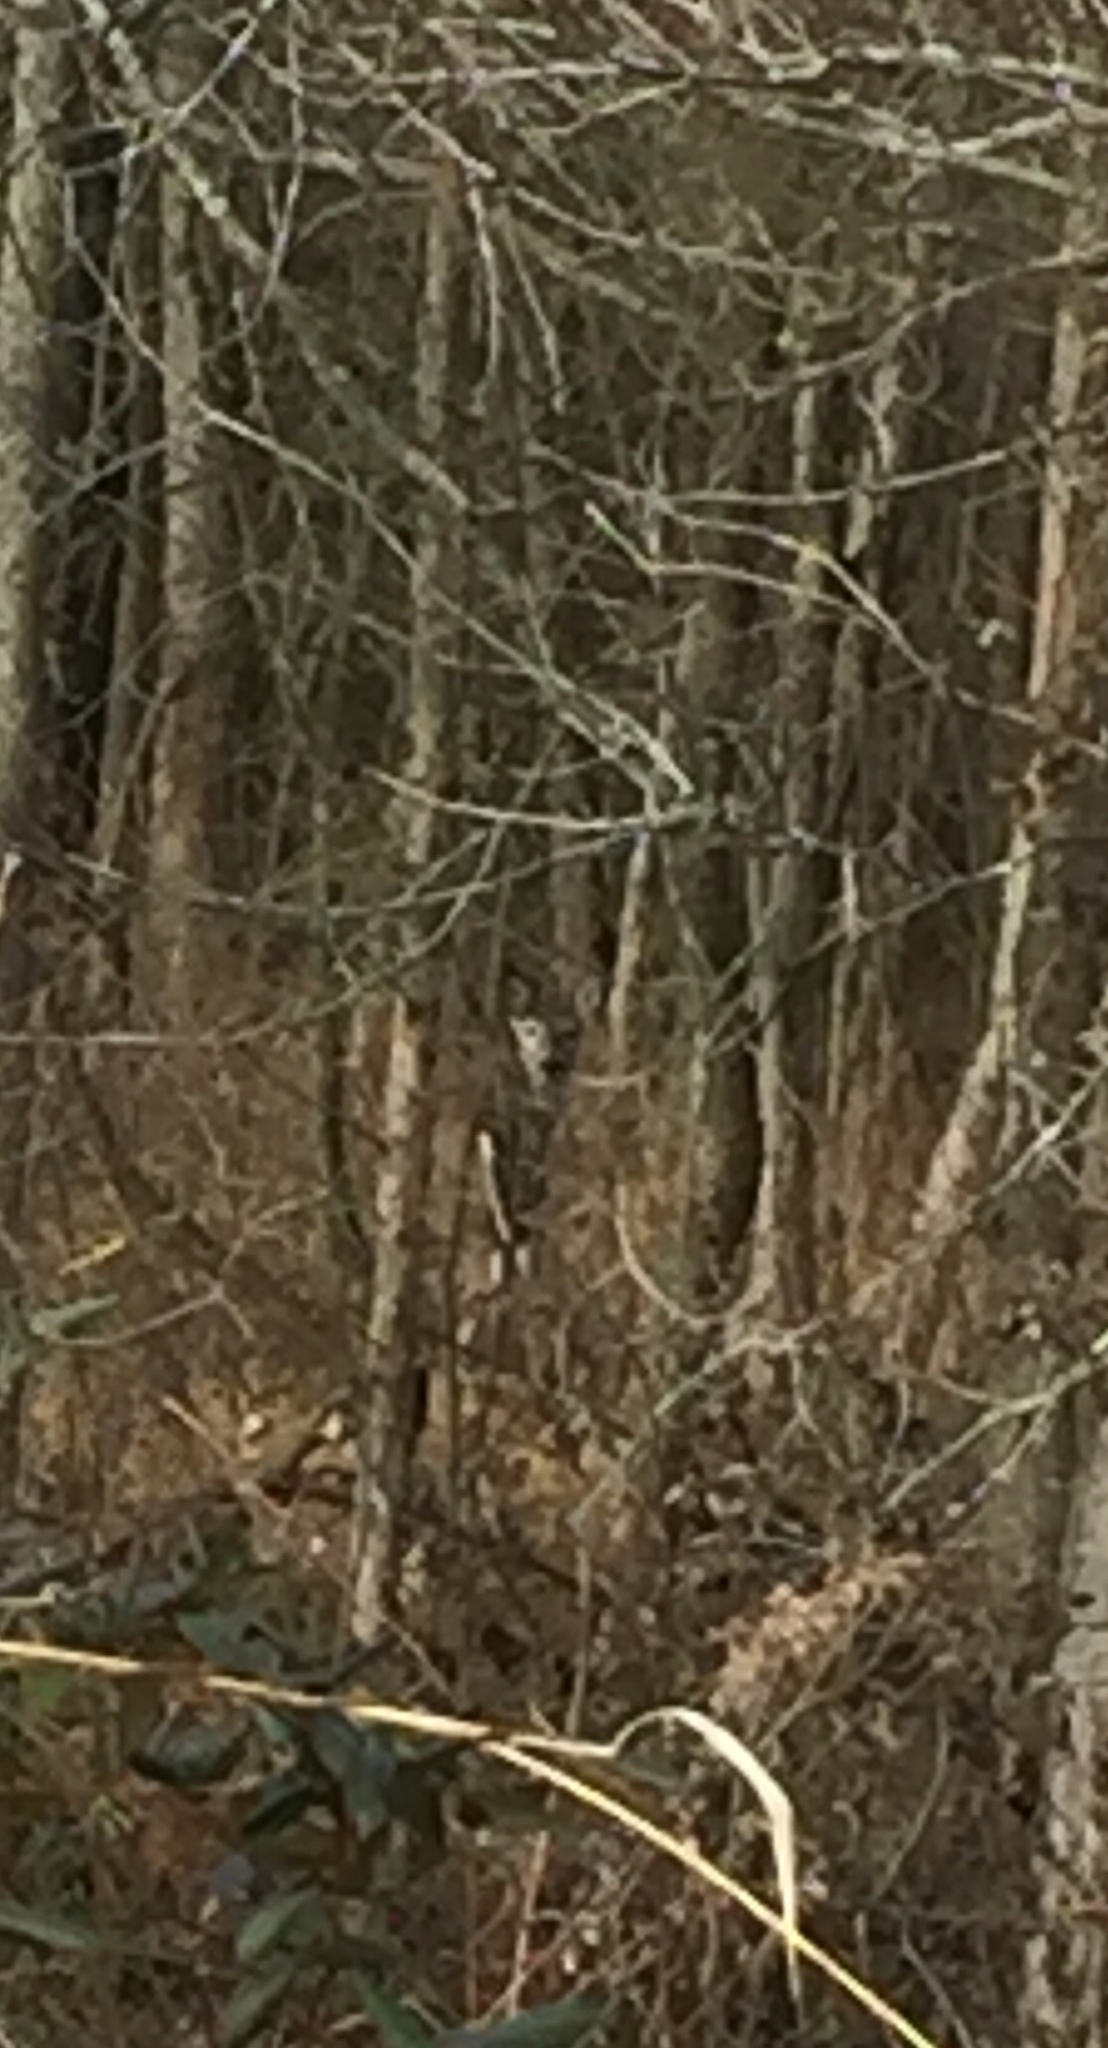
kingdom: Animalia
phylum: Chordata
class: Mammalia
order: Artiodactyla
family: Cervidae
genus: Odocoileus
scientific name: Odocoileus virginianus
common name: White-tailed deer
